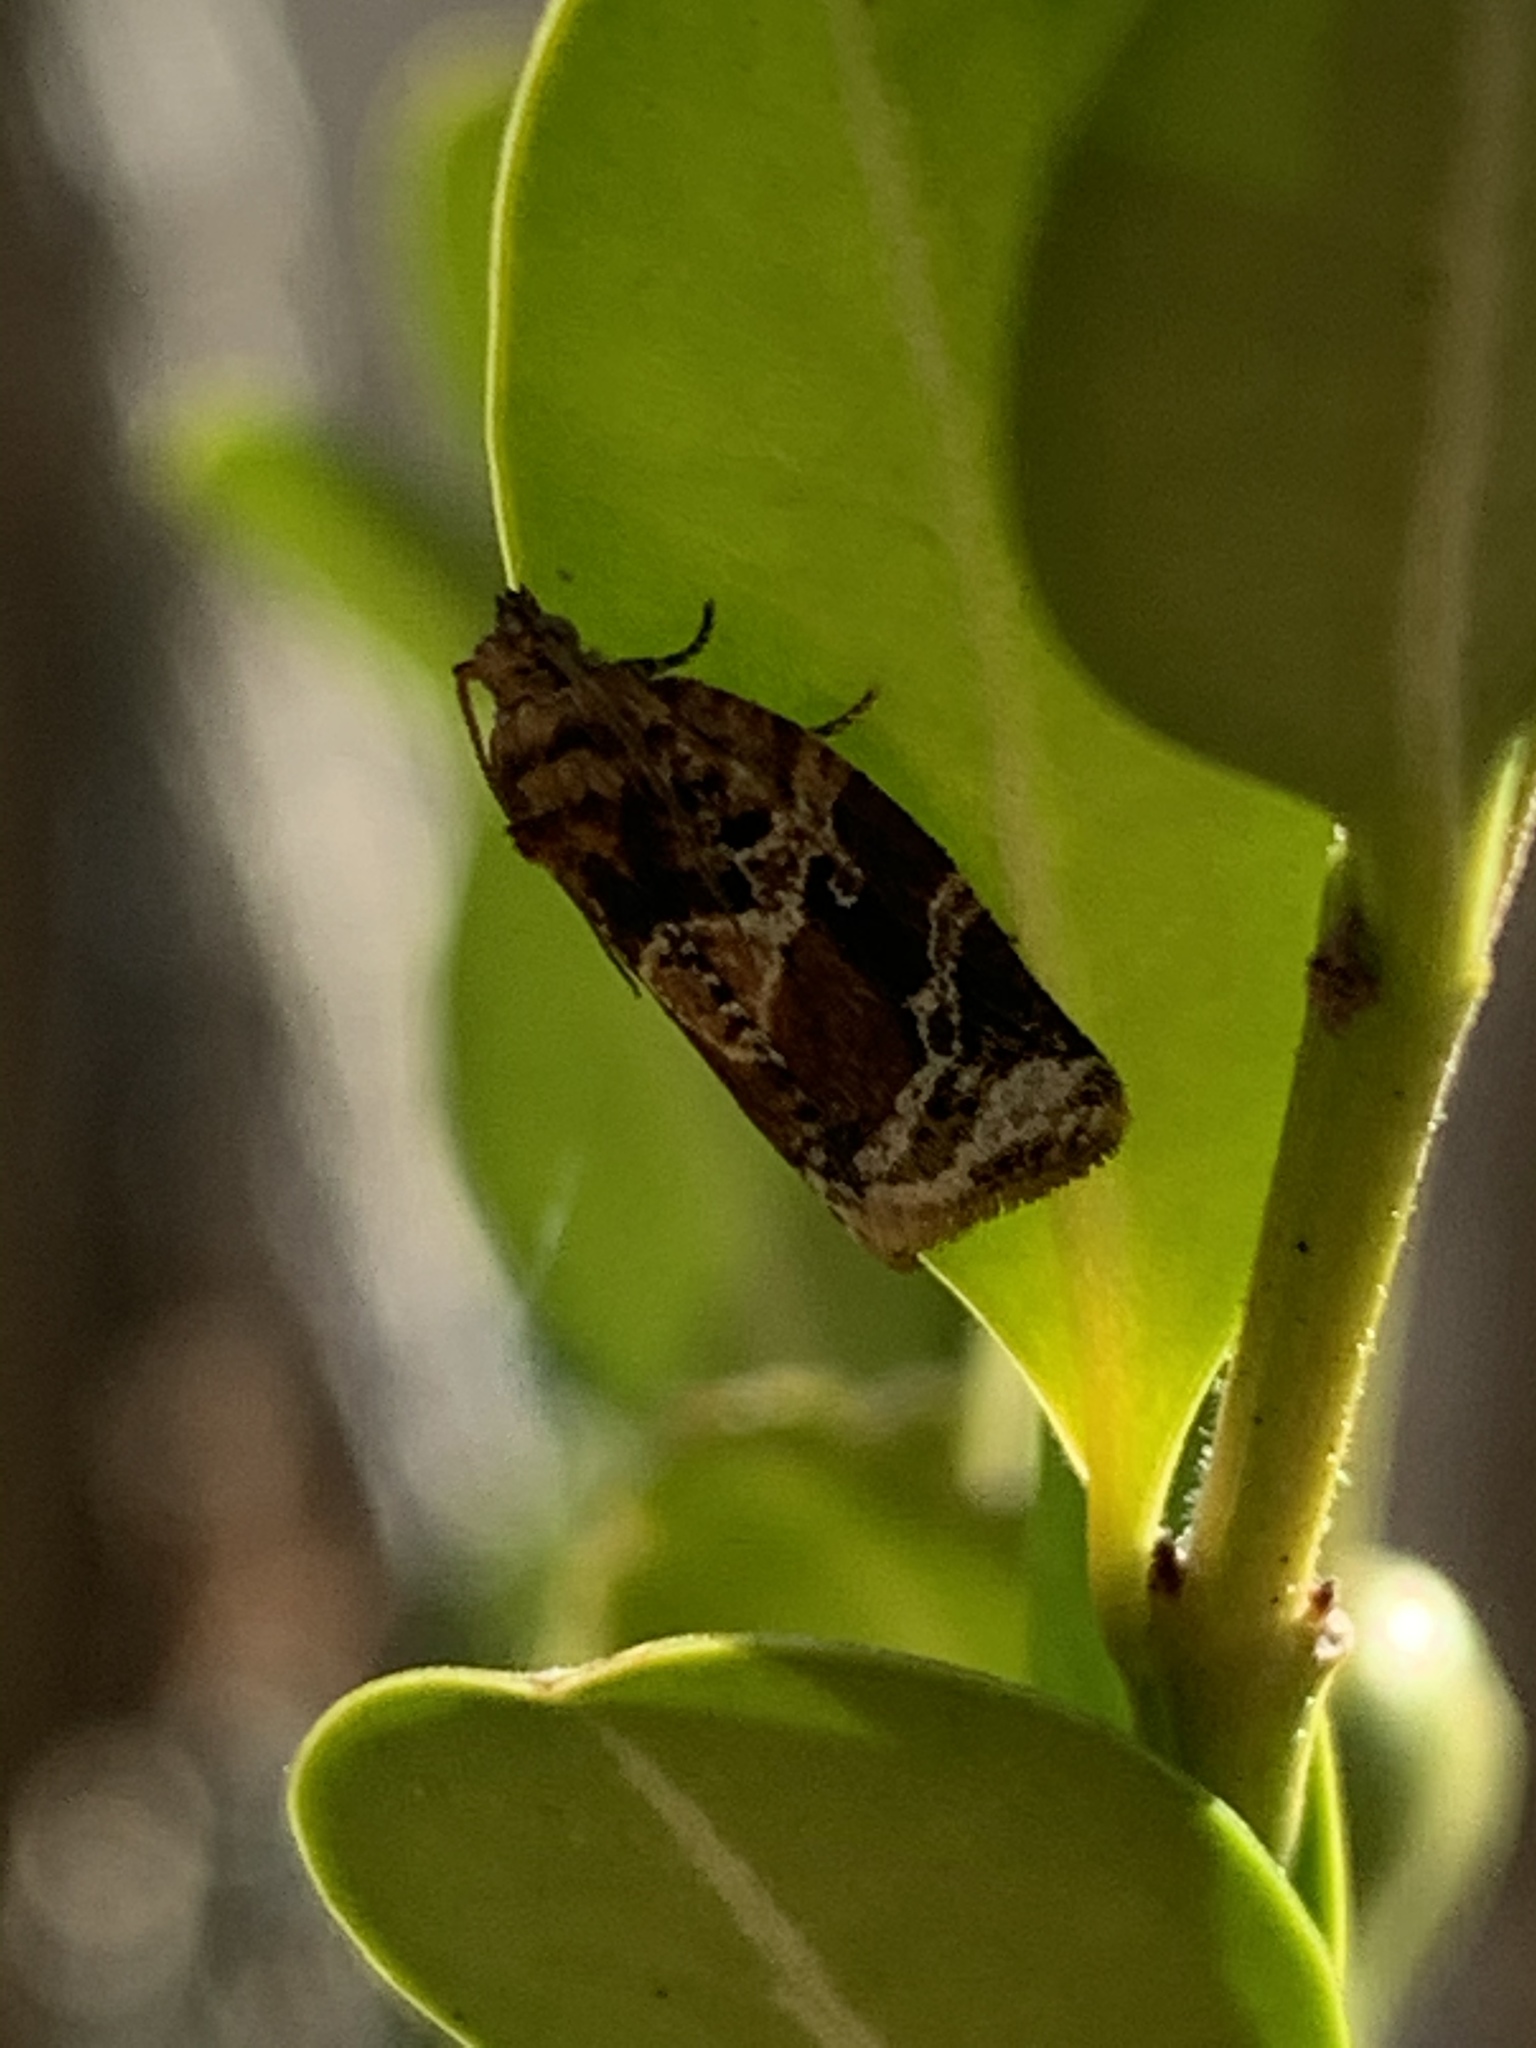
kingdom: Animalia
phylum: Arthropoda
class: Insecta
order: Lepidoptera
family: Tortricidae
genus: Argyrotaenia
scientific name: Argyrotaenia velutinana
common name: Red-banded leafroller moth
